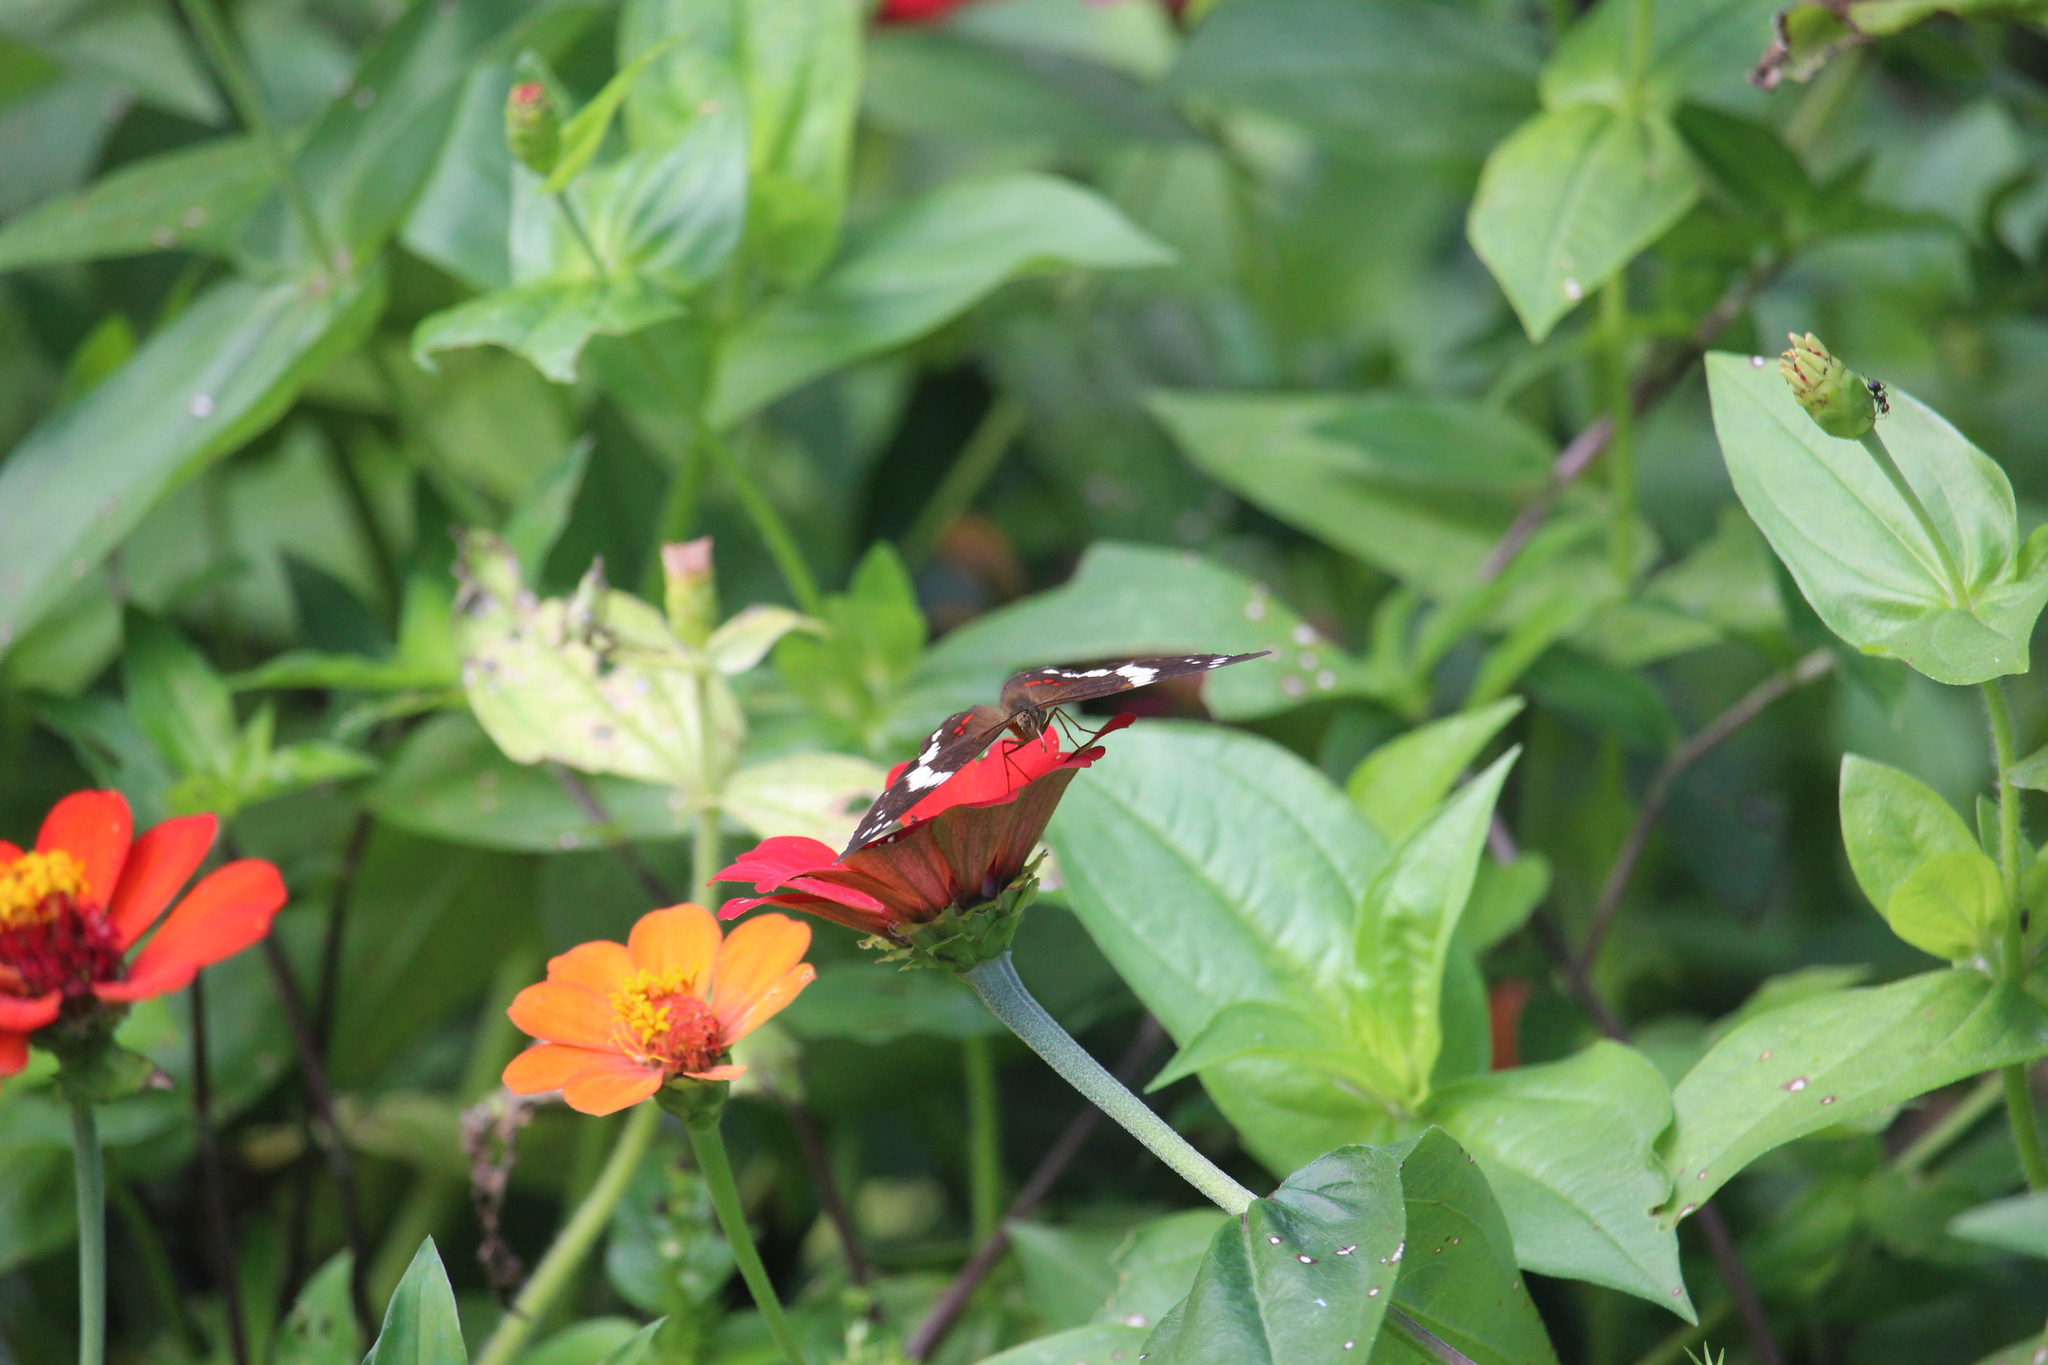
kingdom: Animalia
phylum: Arthropoda
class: Insecta
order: Lepidoptera
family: Nymphalidae
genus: Anartia
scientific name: Anartia fatima
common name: Banded peacock
